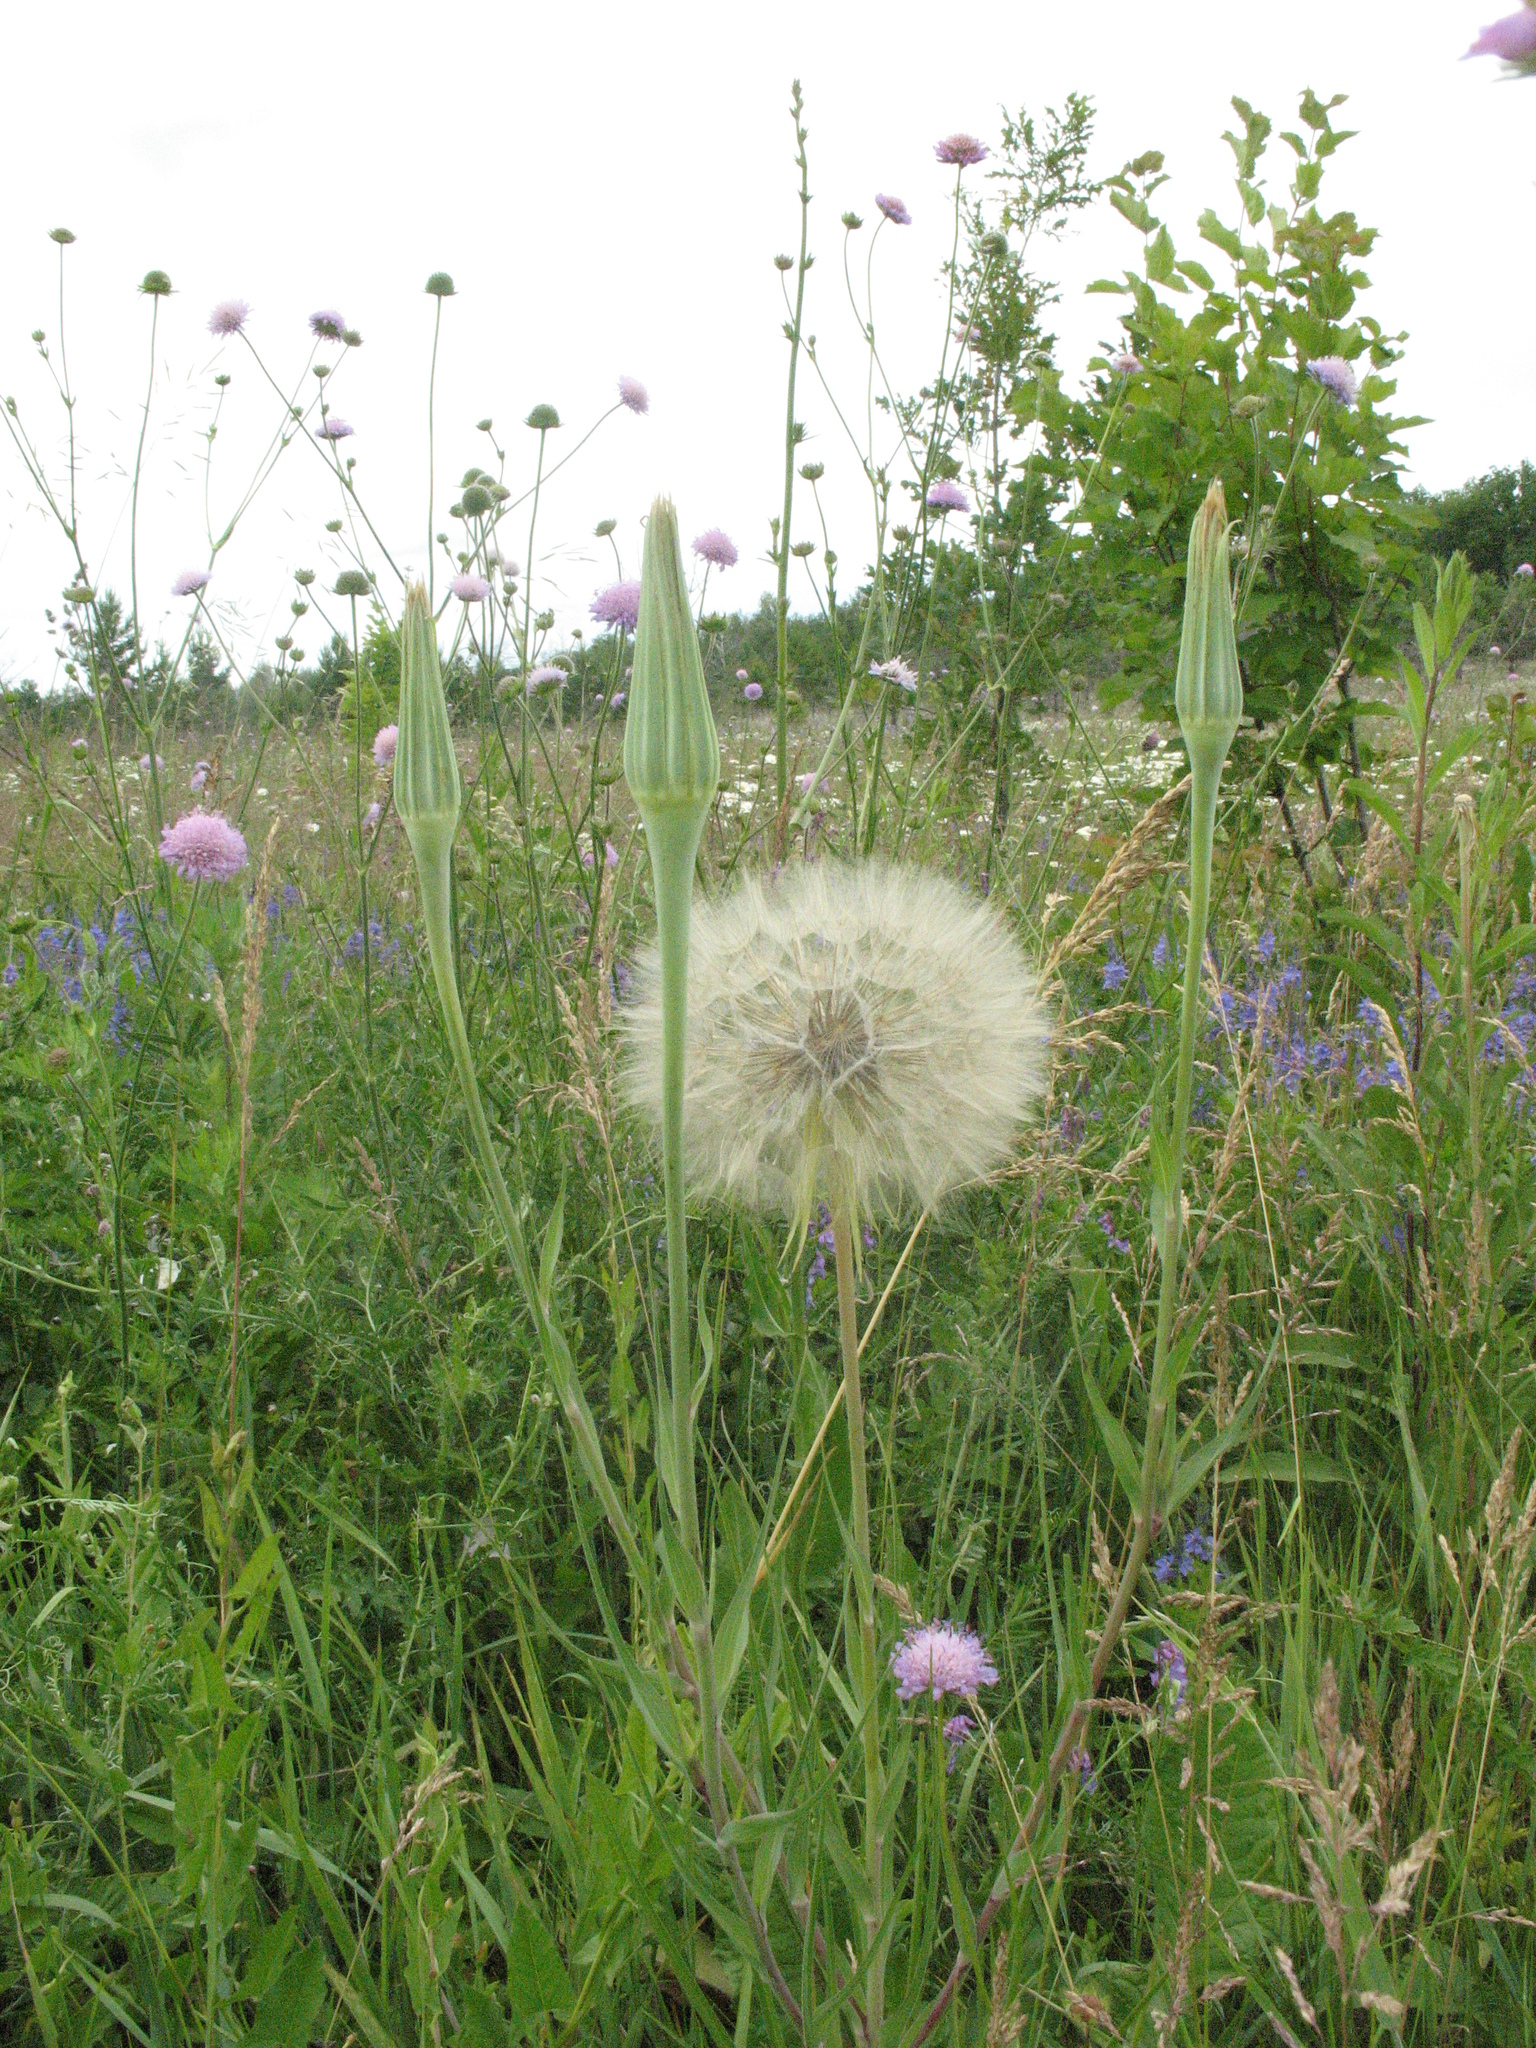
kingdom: Plantae
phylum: Tracheophyta
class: Magnoliopsida
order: Asterales
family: Asteraceae
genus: Tragopogon
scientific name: Tragopogon dubius
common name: Yellow salsify
